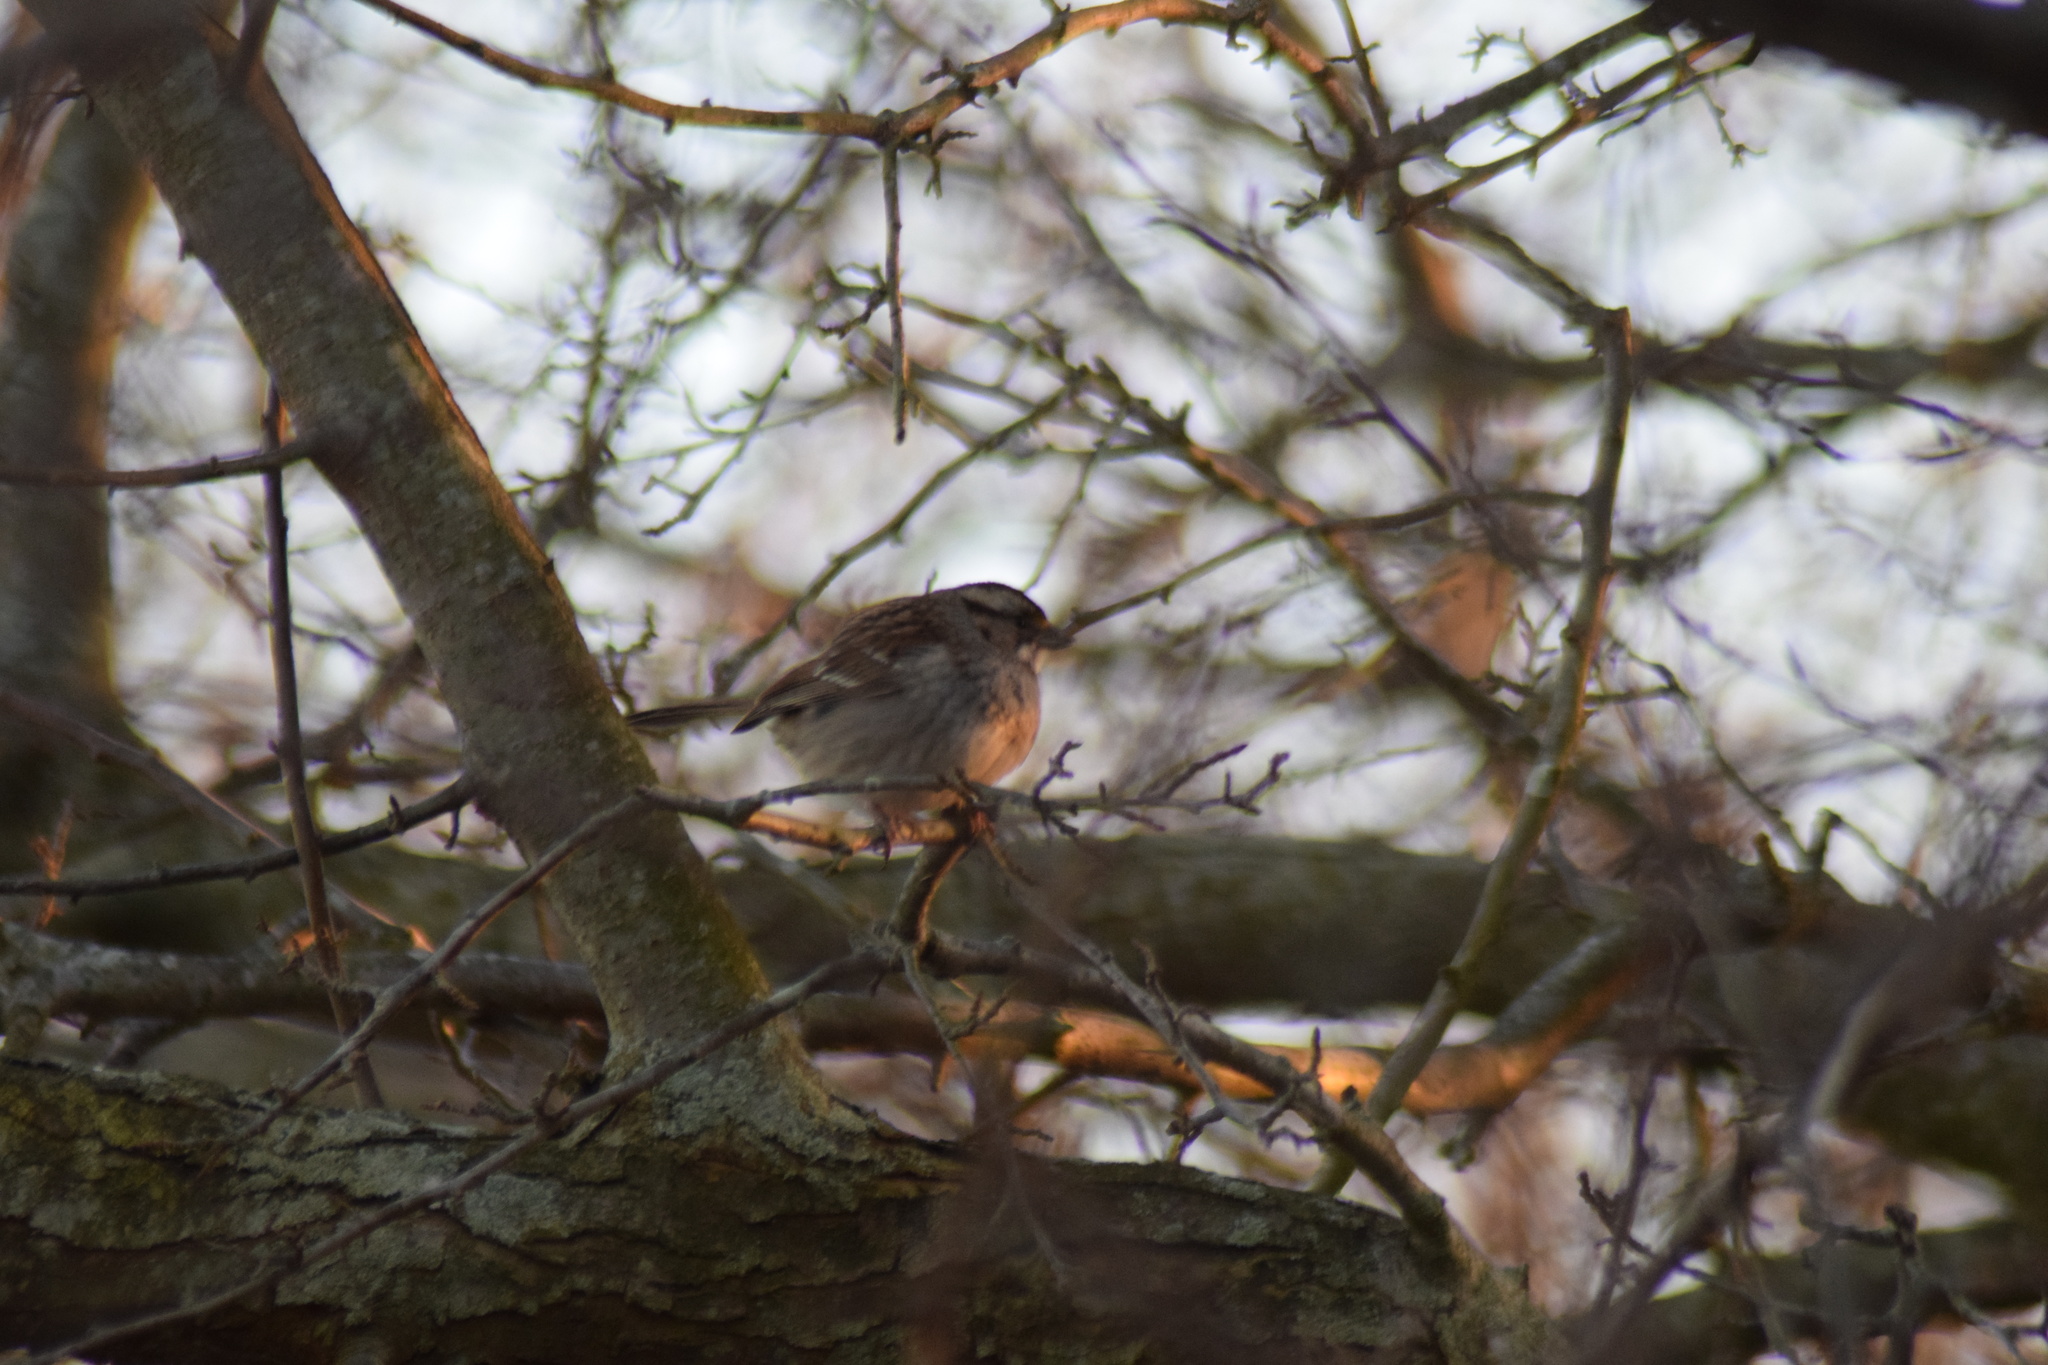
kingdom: Animalia
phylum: Chordata
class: Aves
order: Passeriformes
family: Passerellidae
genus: Zonotrichia
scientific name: Zonotrichia albicollis
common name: White-throated sparrow
